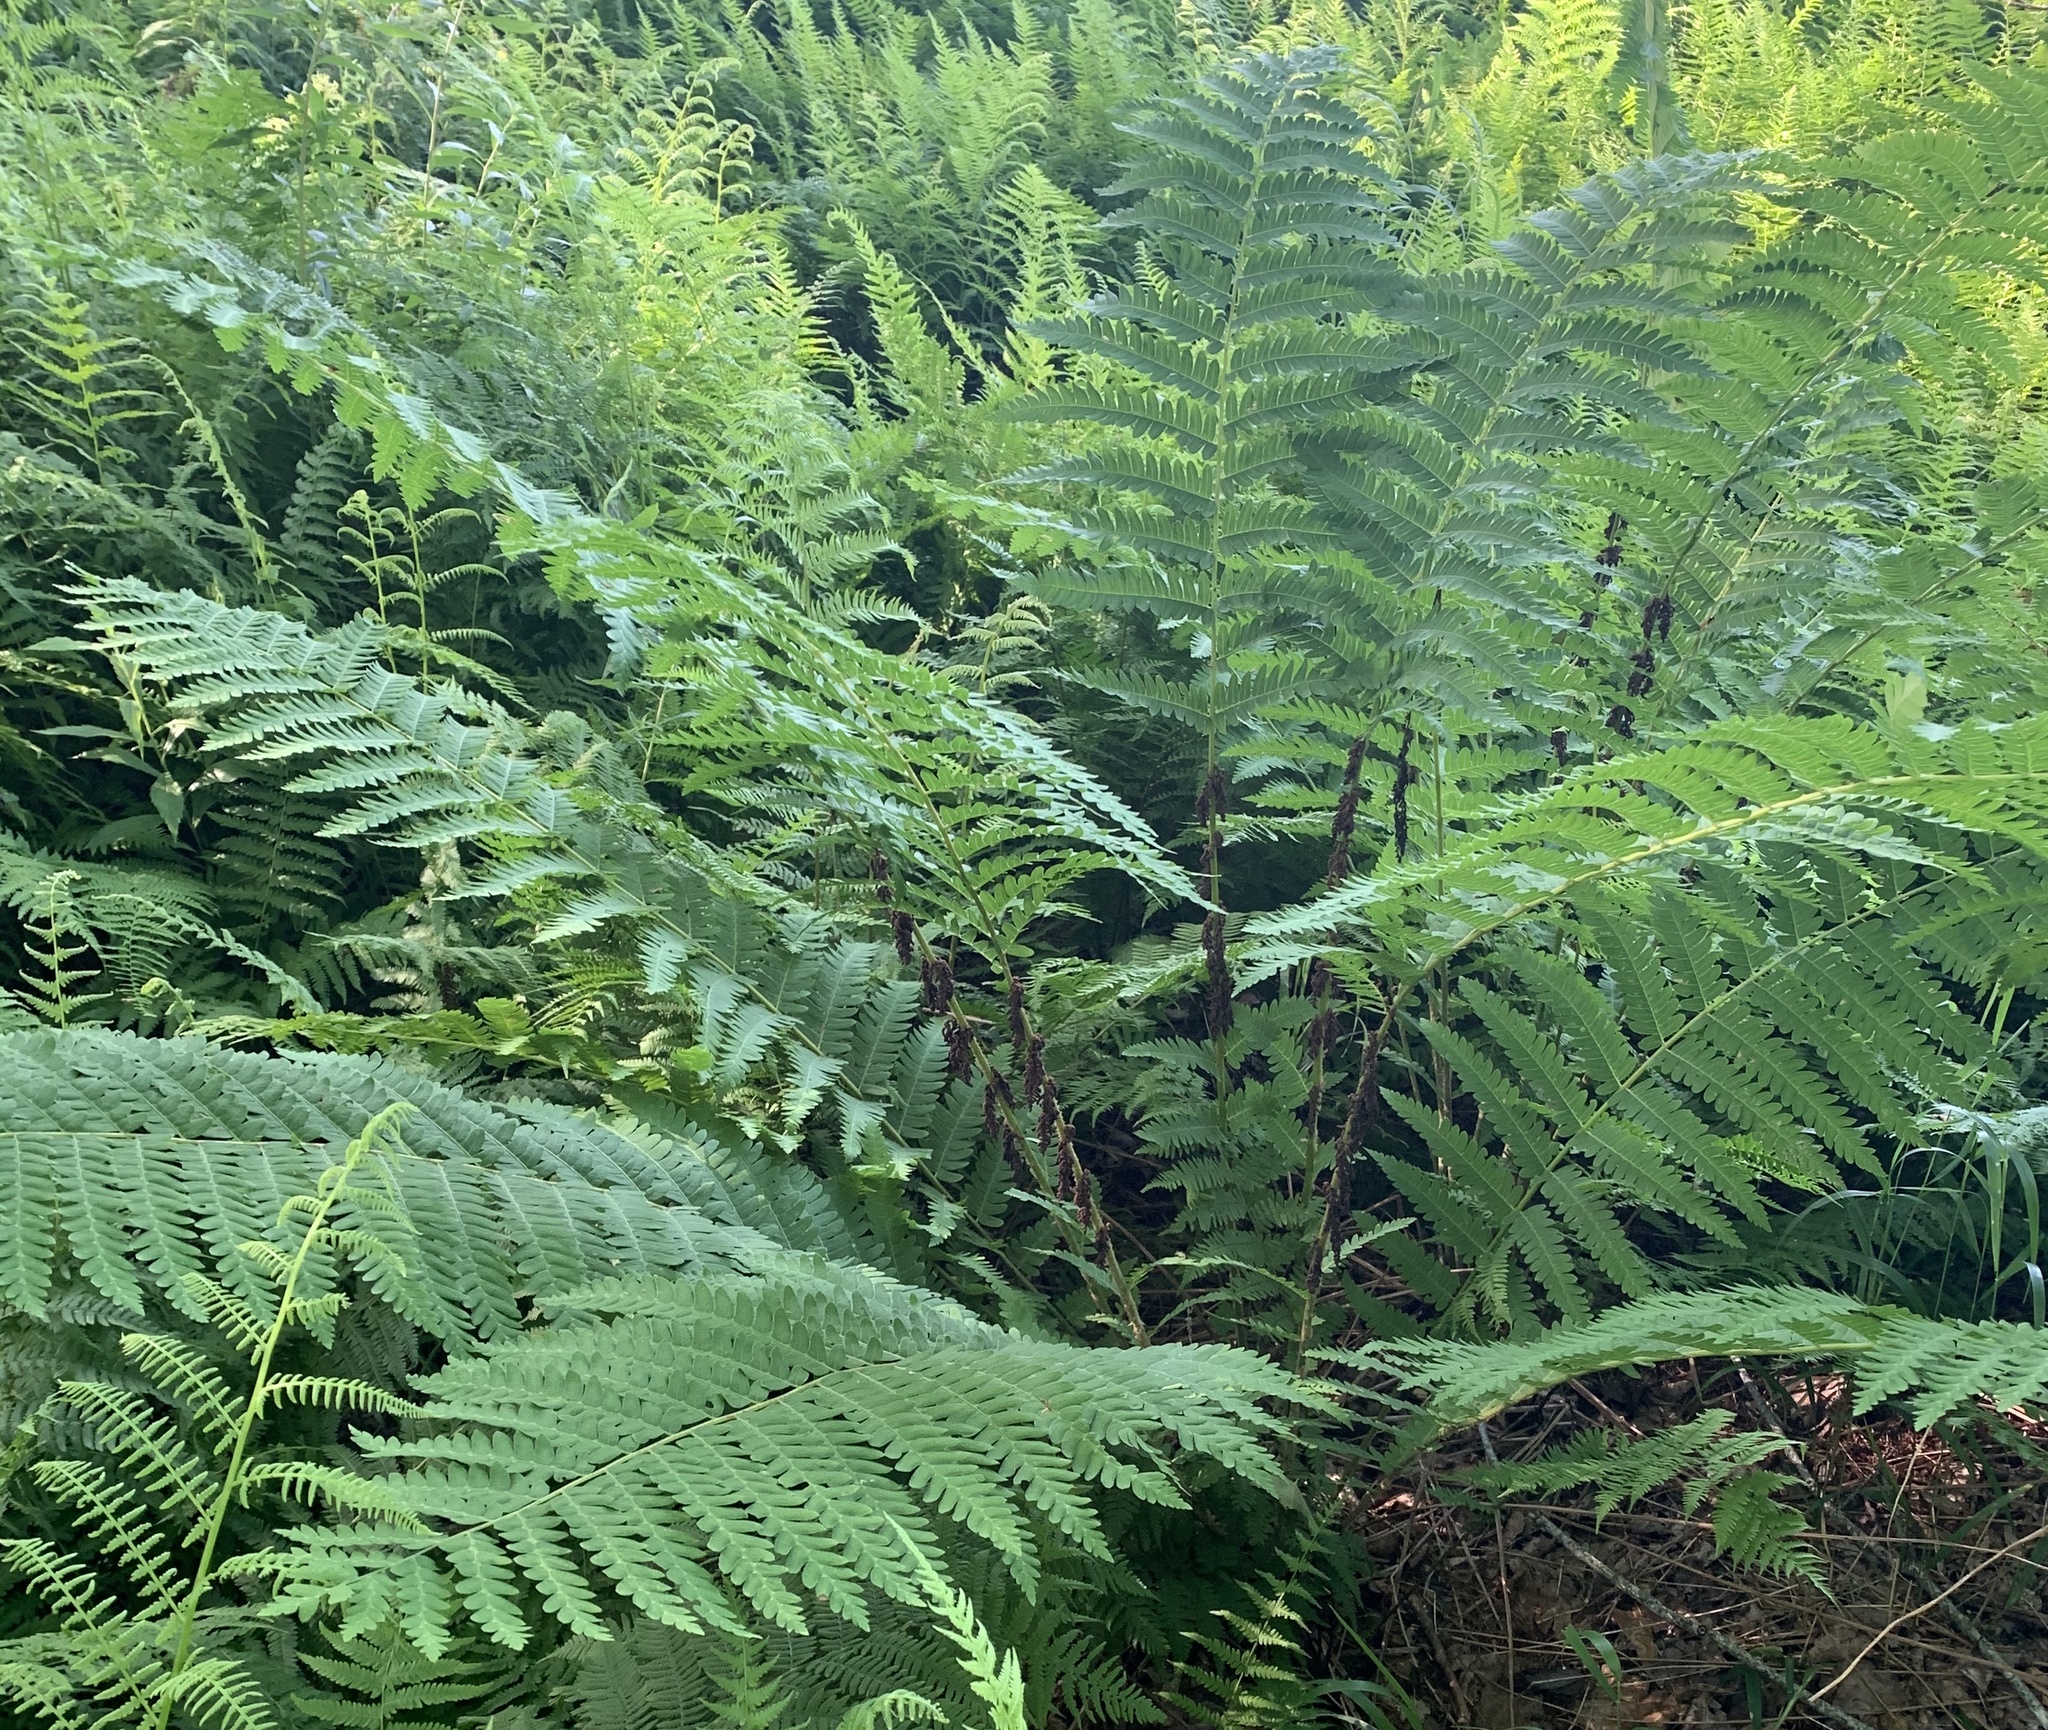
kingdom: Plantae
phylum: Tracheophyta
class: Polypodiopsida
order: Osmundales
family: Osmundaceae
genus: Claytosmunda
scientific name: Claytosmunda claytoniana
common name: Clayton's fern
